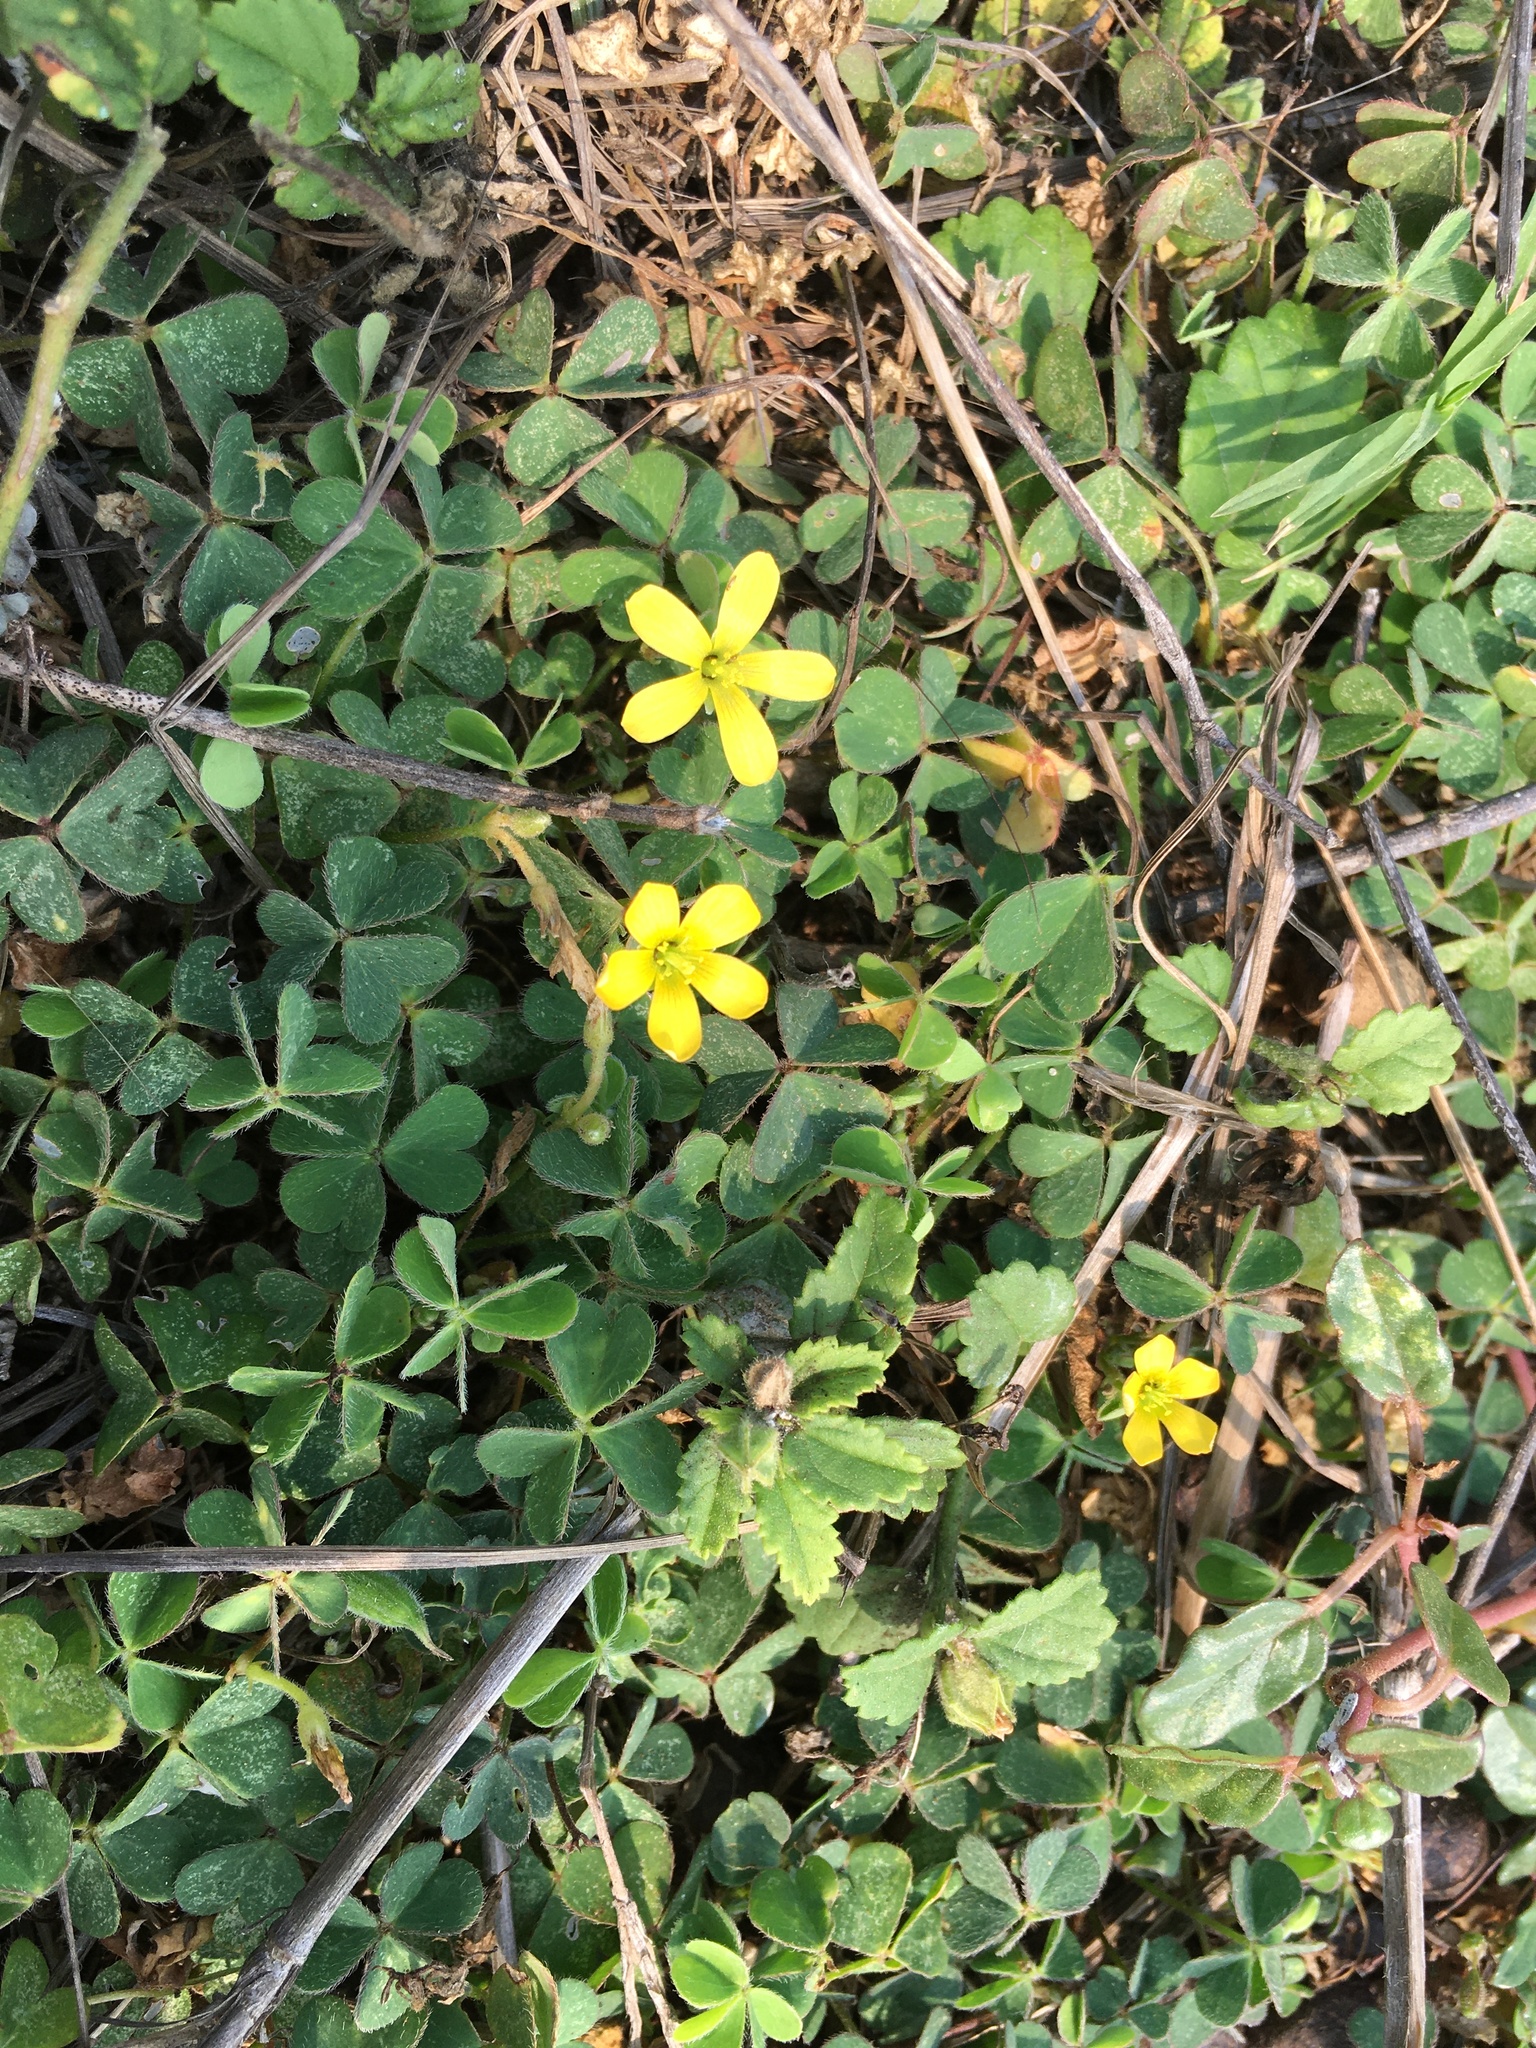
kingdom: Plantae
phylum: Tracheophyta
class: Magnoliopsida
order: Oxalidales
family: Oxalidaceae
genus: Oxalis
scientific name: Oxalis corniculata
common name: Procumbent yellow-sorrel
